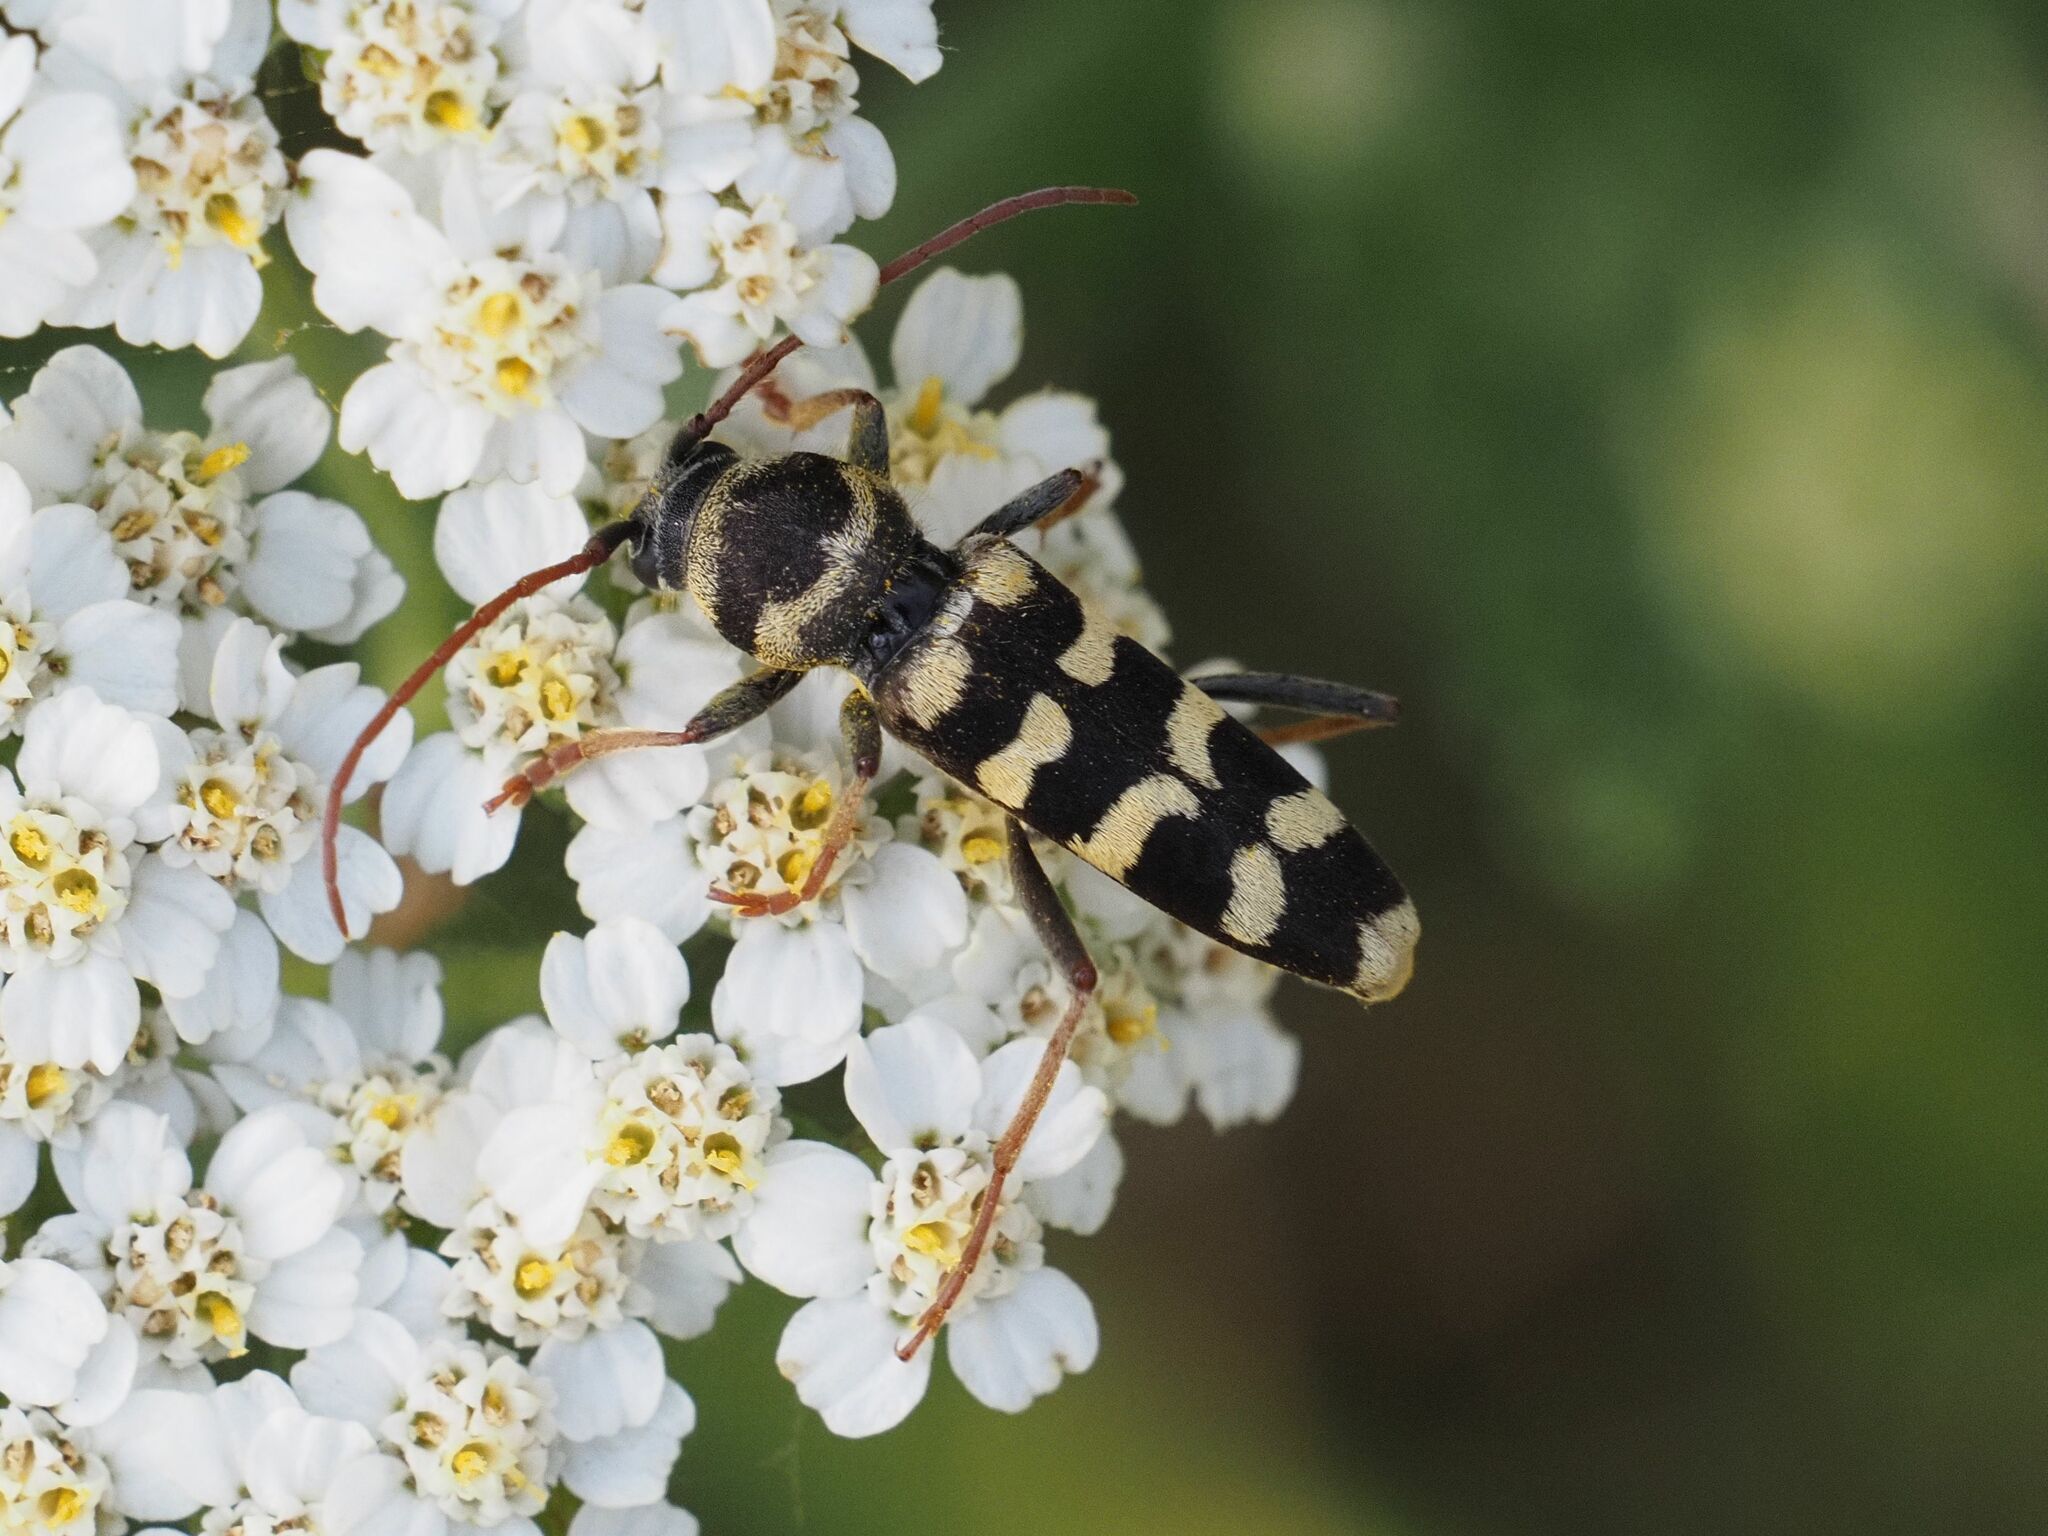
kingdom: Animalia
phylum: Arthropoda
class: Insecta
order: Coleoptera
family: Cerambycidae
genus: Plagionotus
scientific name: Plagionotus floralis
